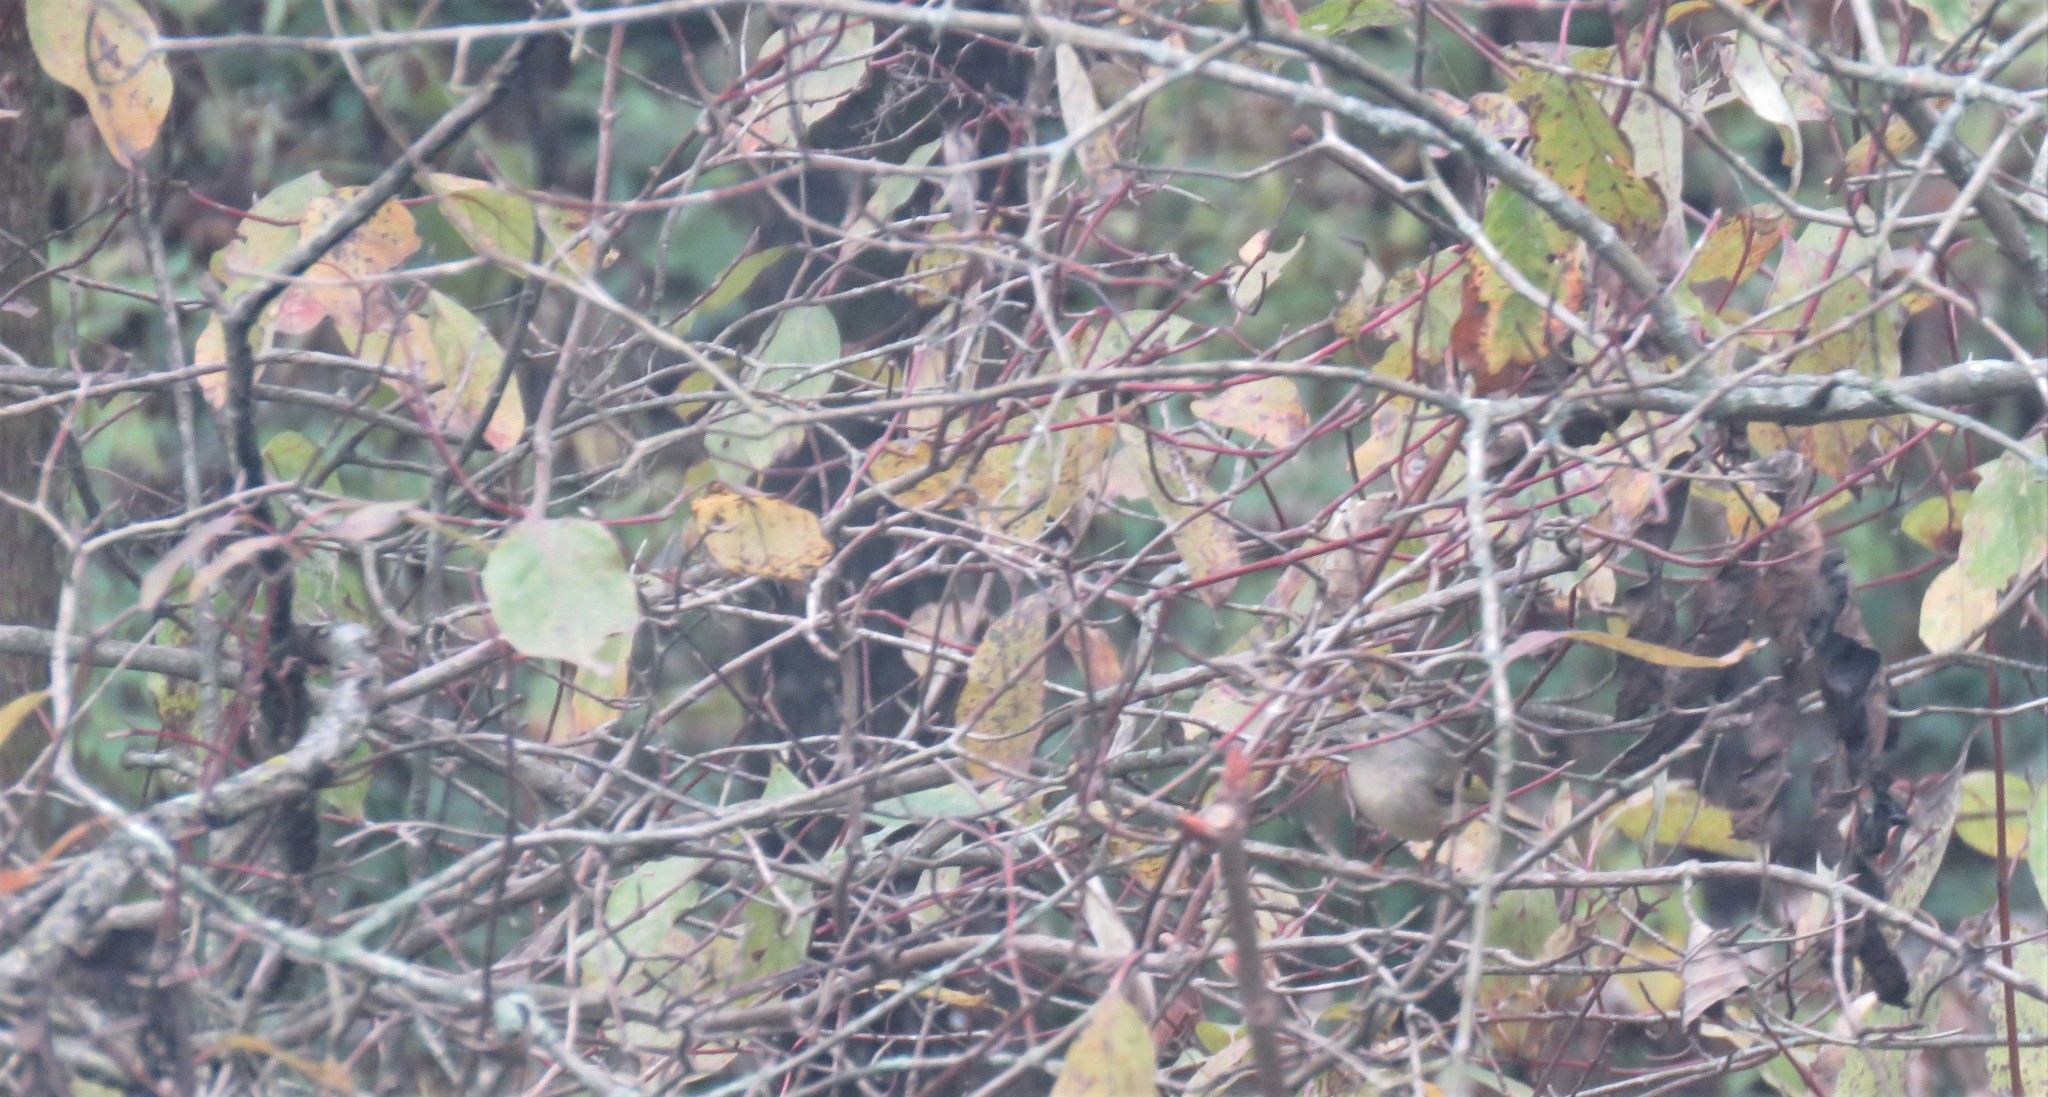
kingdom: Animalia
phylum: Chordata
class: Aves
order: Passeriformes
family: Regulidae
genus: Regulus
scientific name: Regulus calendula
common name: Ruby-crowned kinglet
